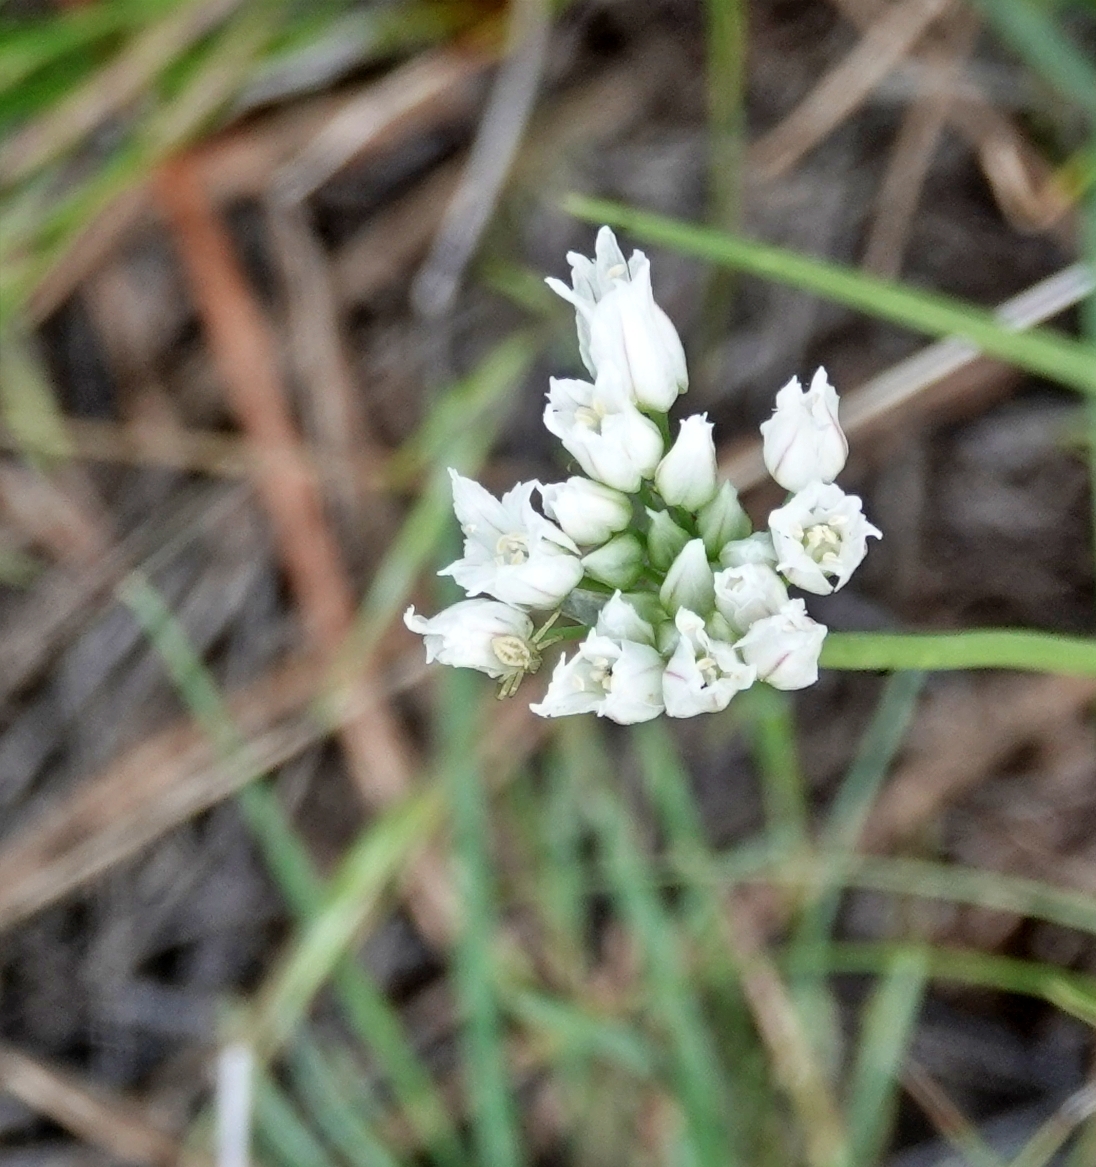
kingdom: Plantae
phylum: Tracheophyta
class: Liliopsida
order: Asparagales
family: Amaryllidaceae
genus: Allium
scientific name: Allium textile
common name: Prairie onion
